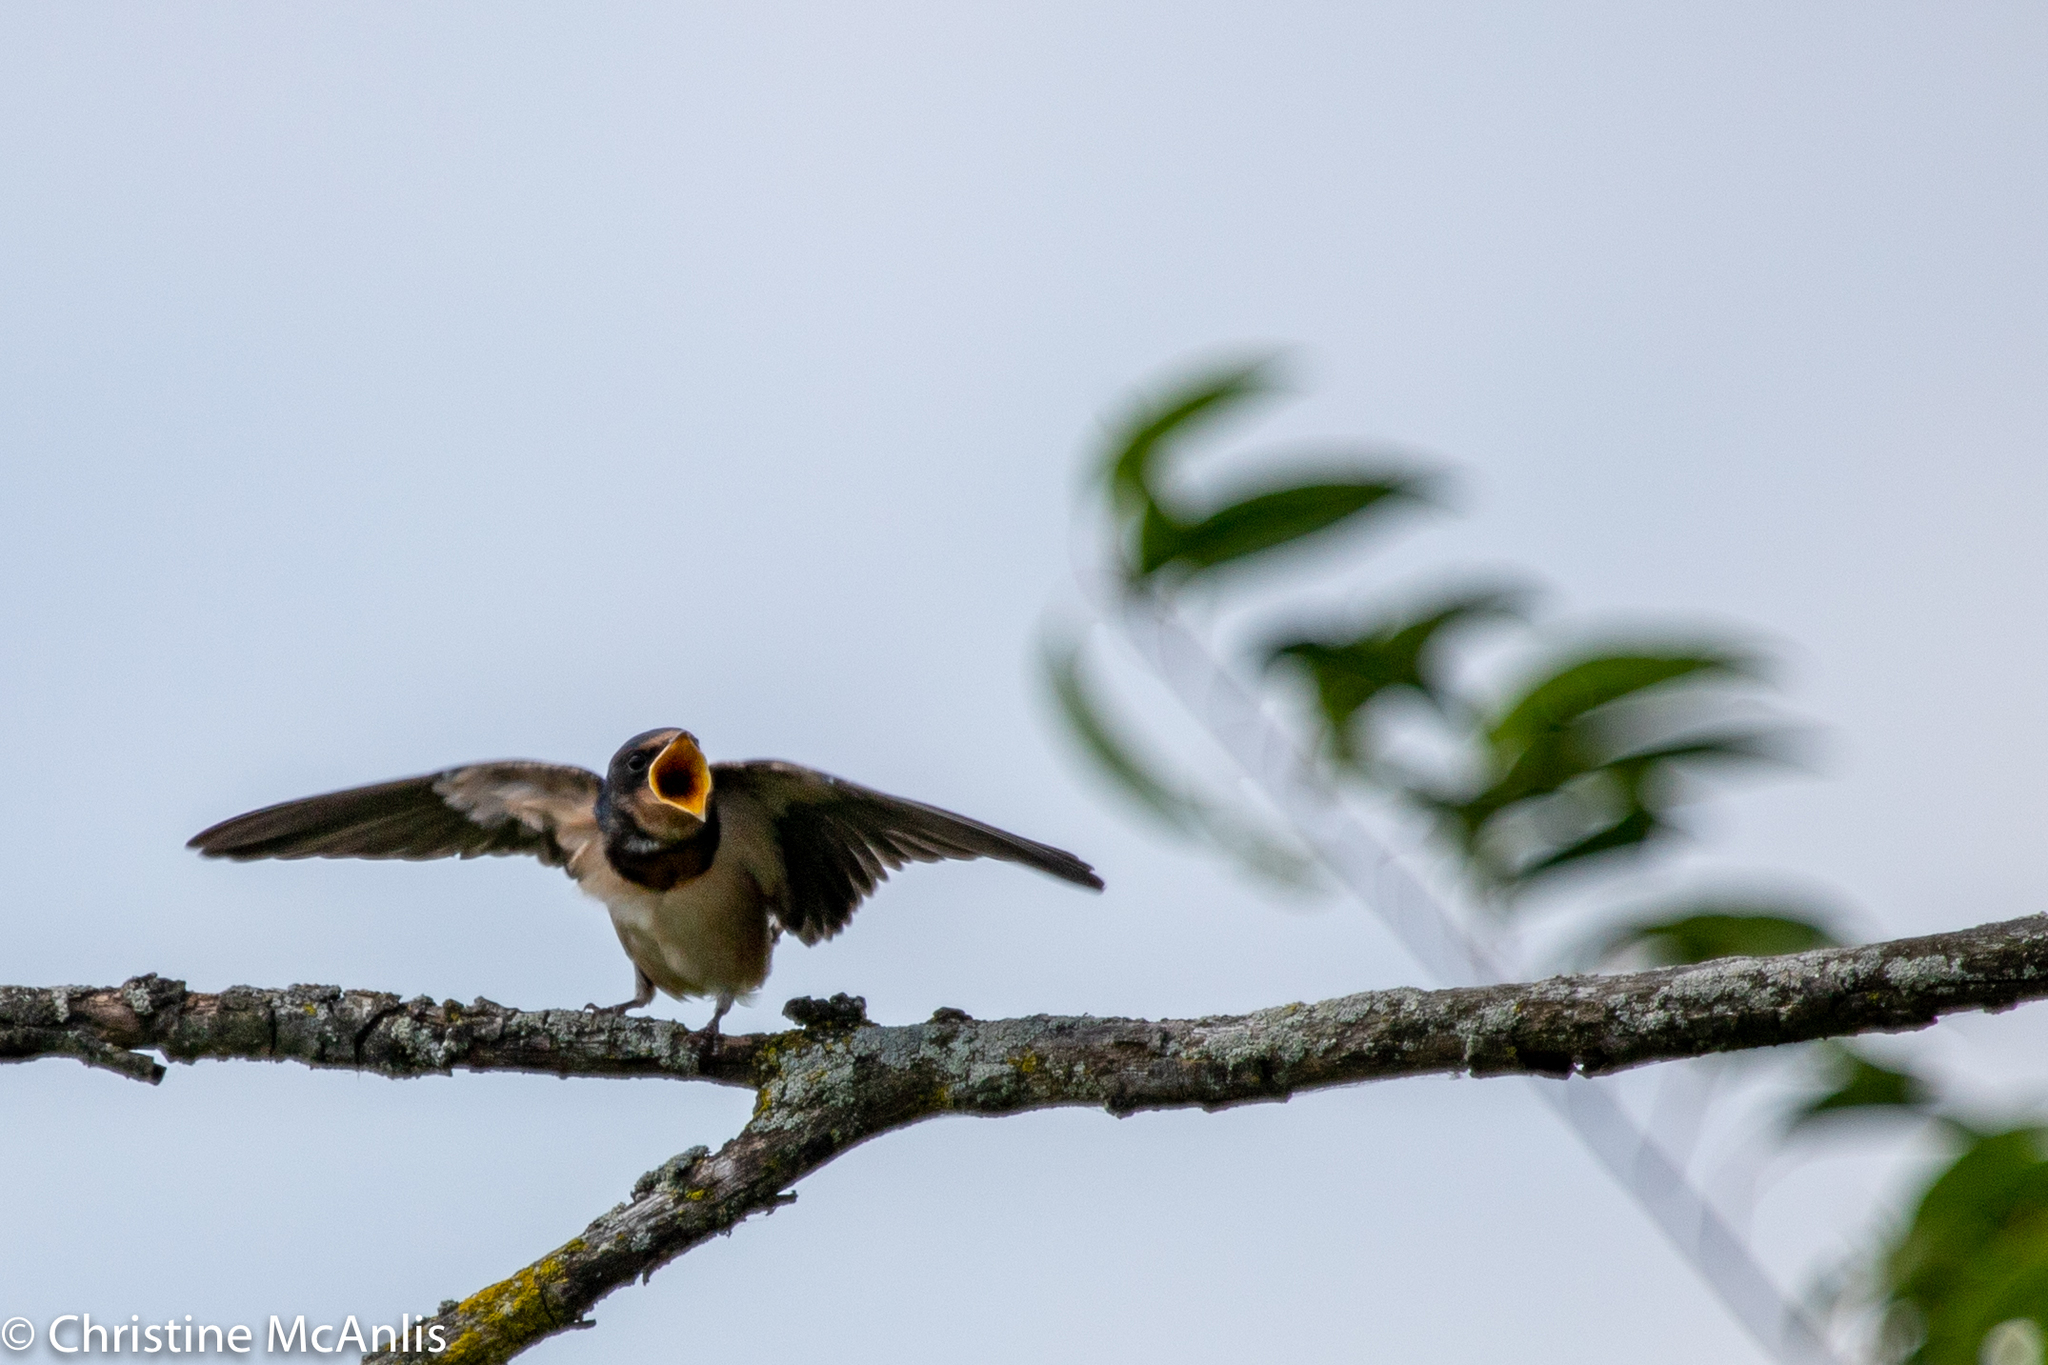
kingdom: Animalia
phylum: Chordata
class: Aves
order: Passeriformes
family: Hirundinidae
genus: Hirundo
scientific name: Hirundo rustica
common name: Barn swallow
